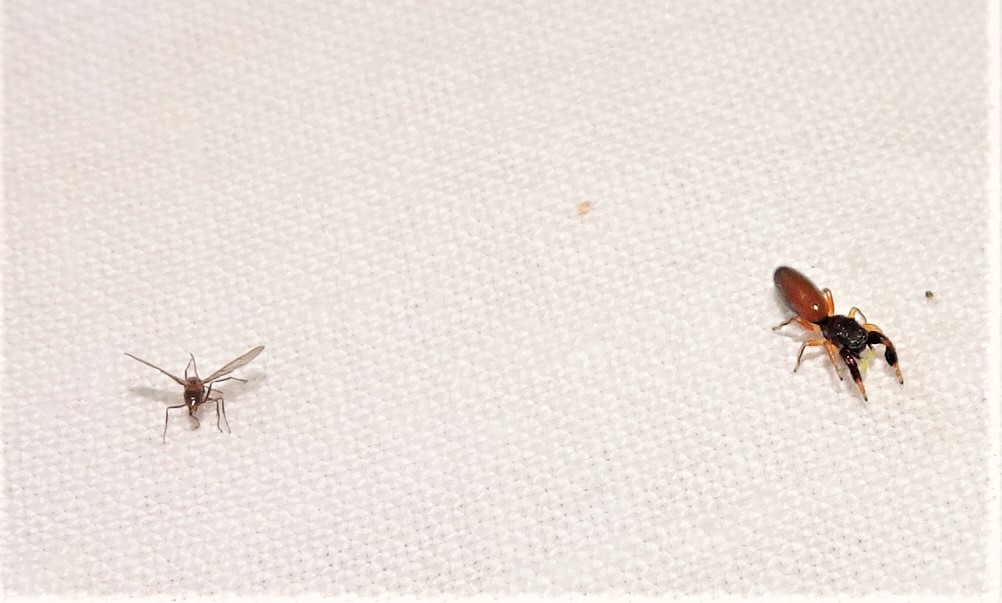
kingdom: Animalia
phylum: Arthropoda
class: Arachnida
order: Araneae
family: Salticidae
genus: Judalana
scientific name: Judalana lutea
